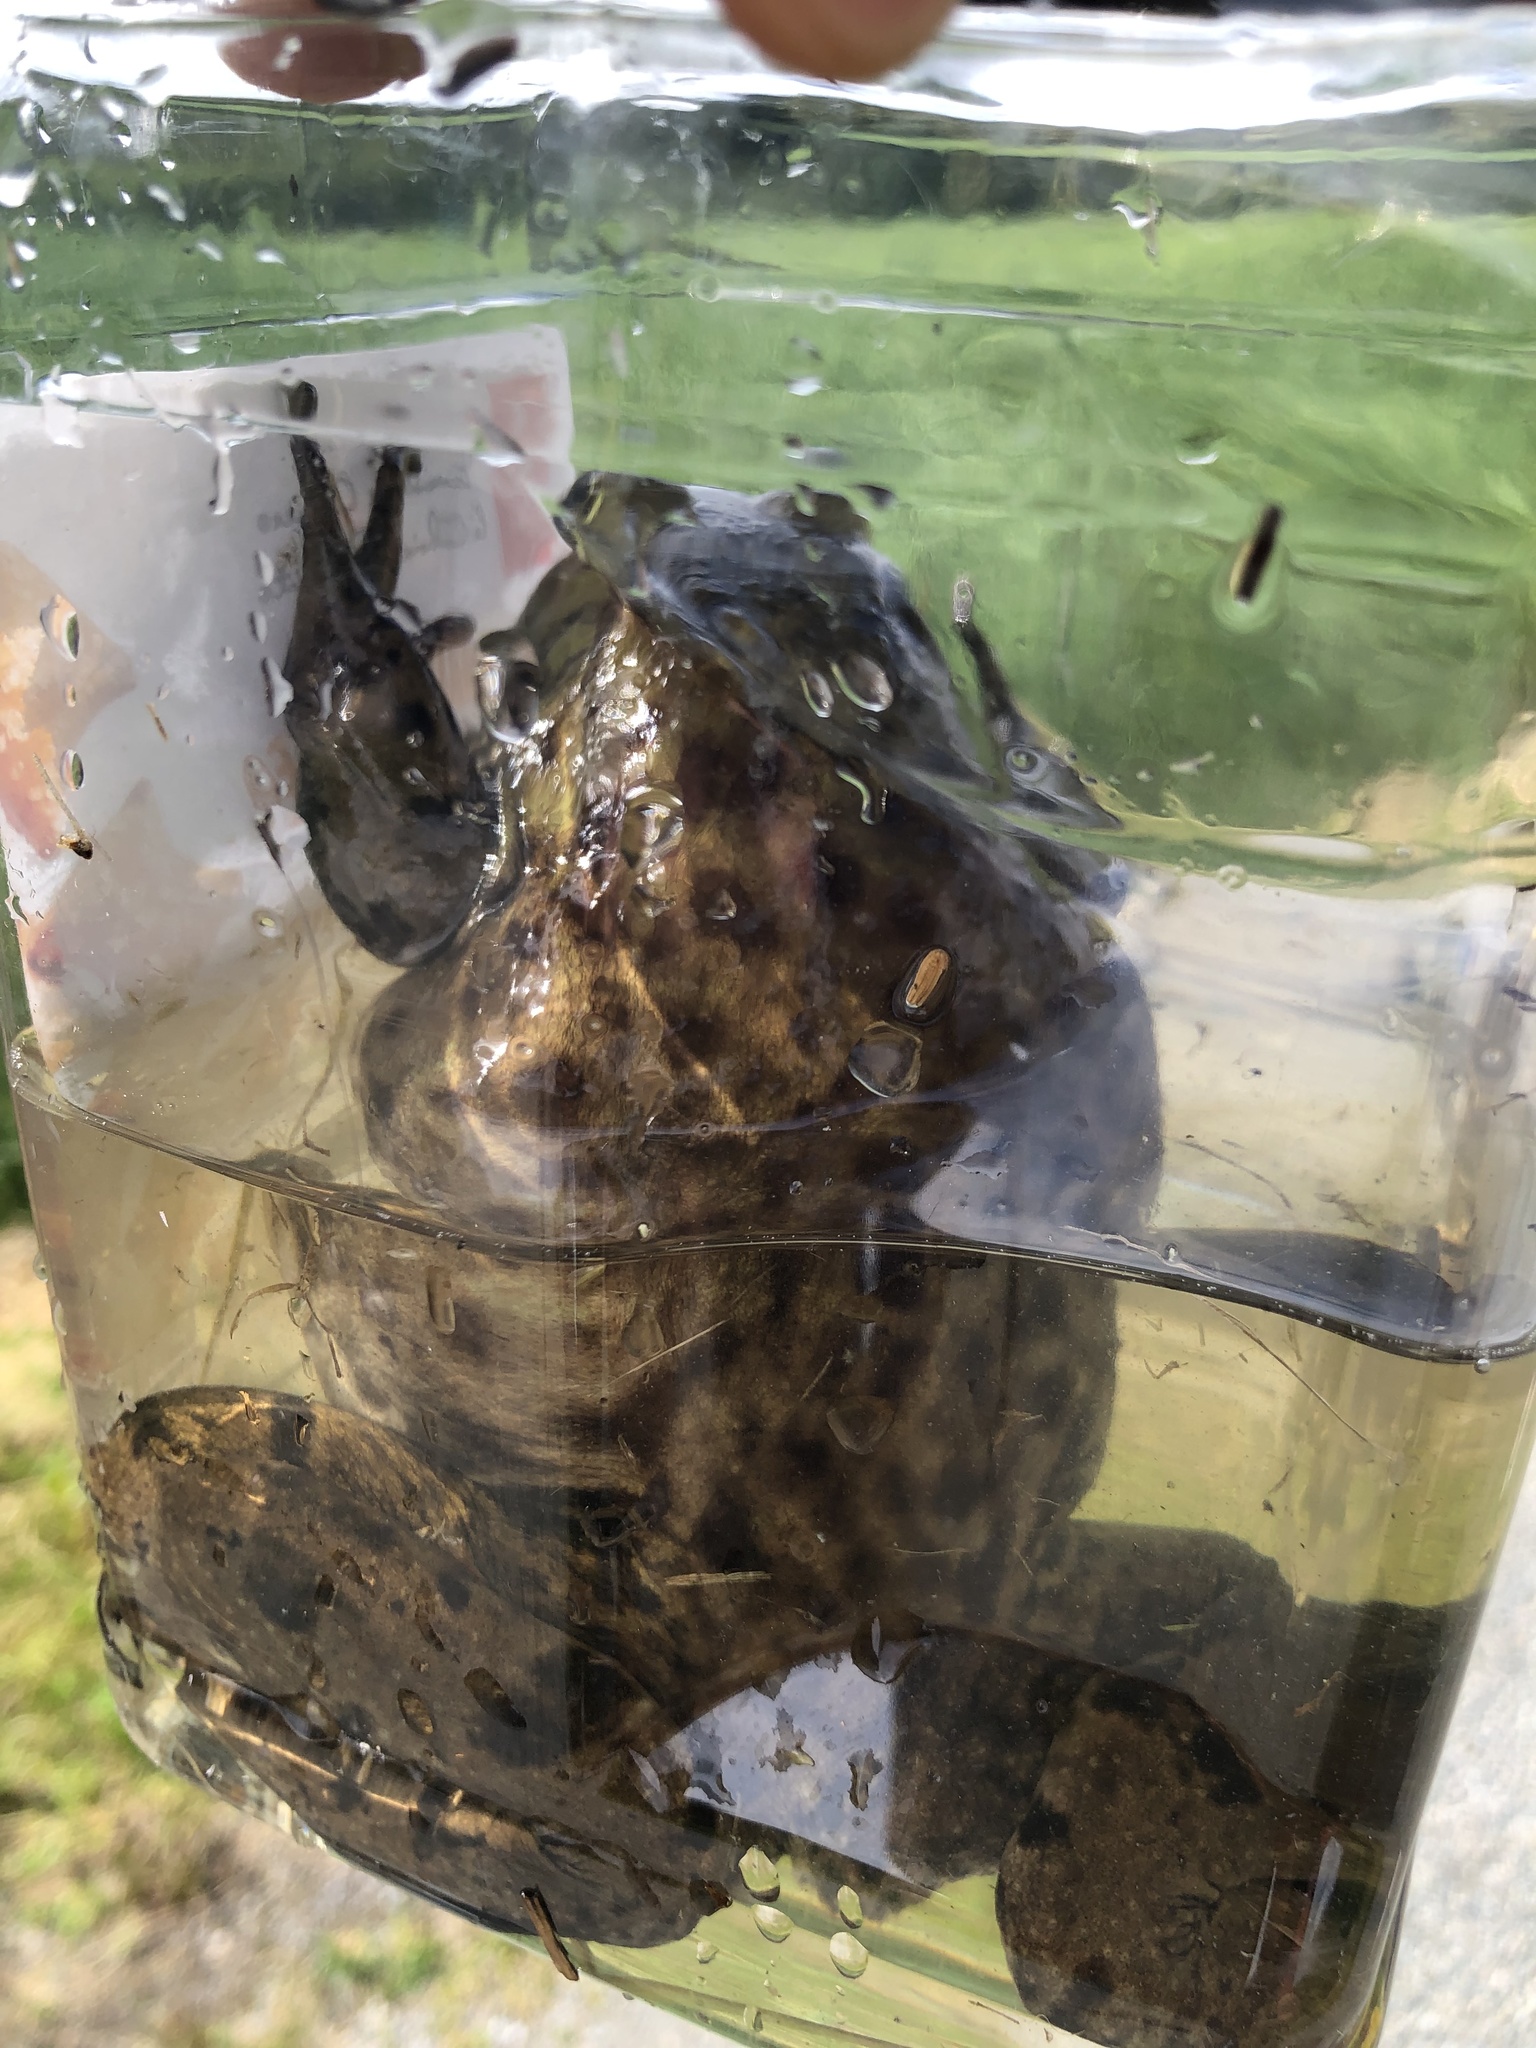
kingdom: Animalia
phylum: Chordata
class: Amphibia
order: Anura
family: Ranidae
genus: Lithobates
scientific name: Lithobates catesbeianus
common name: American bullfrog
